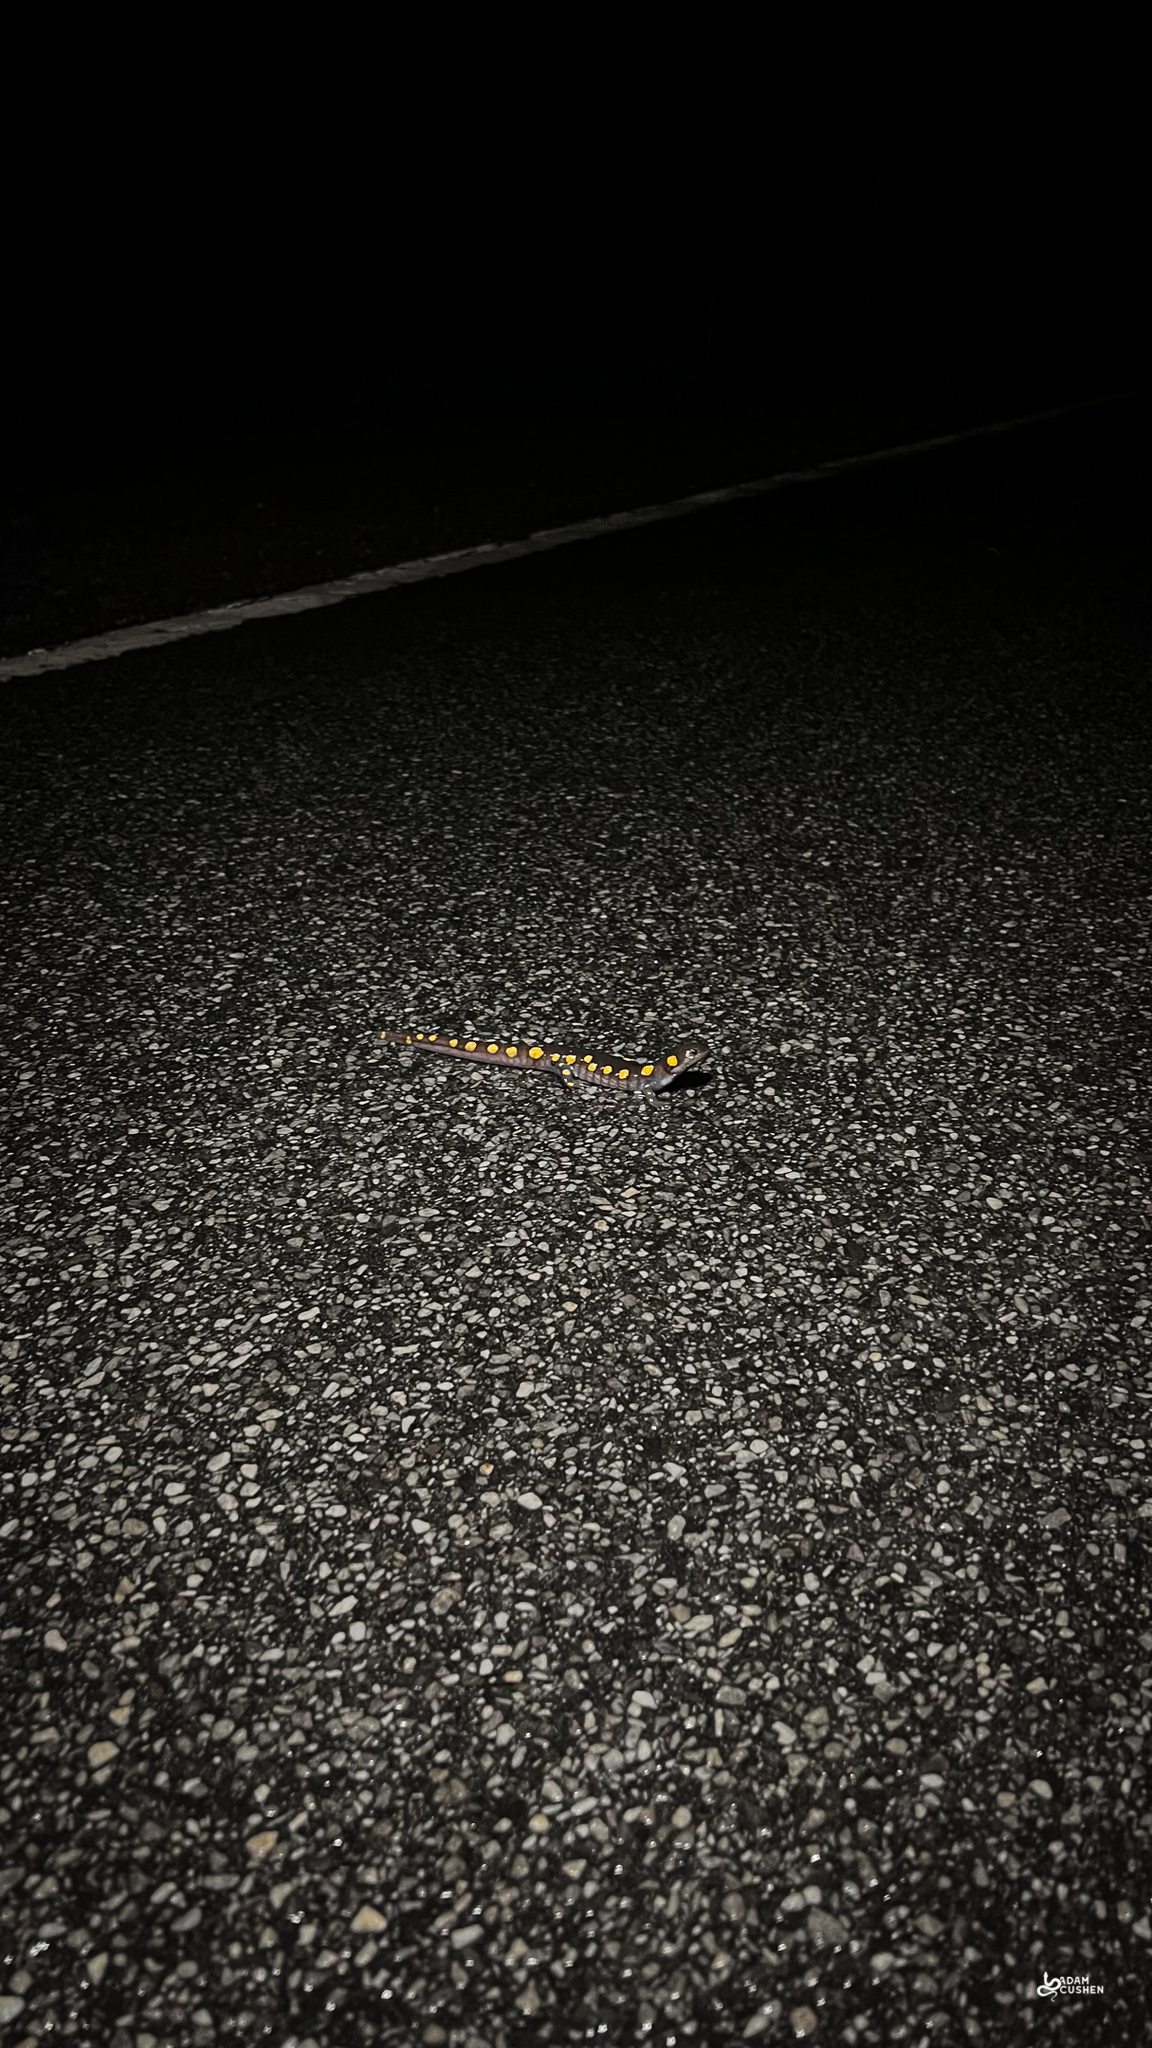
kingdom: Animalia
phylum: Chordata
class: Amphibia
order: Caudata
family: Ambystomatidae
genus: Ambystoma
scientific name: Ambystoma maculatum
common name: Spotted salamander
